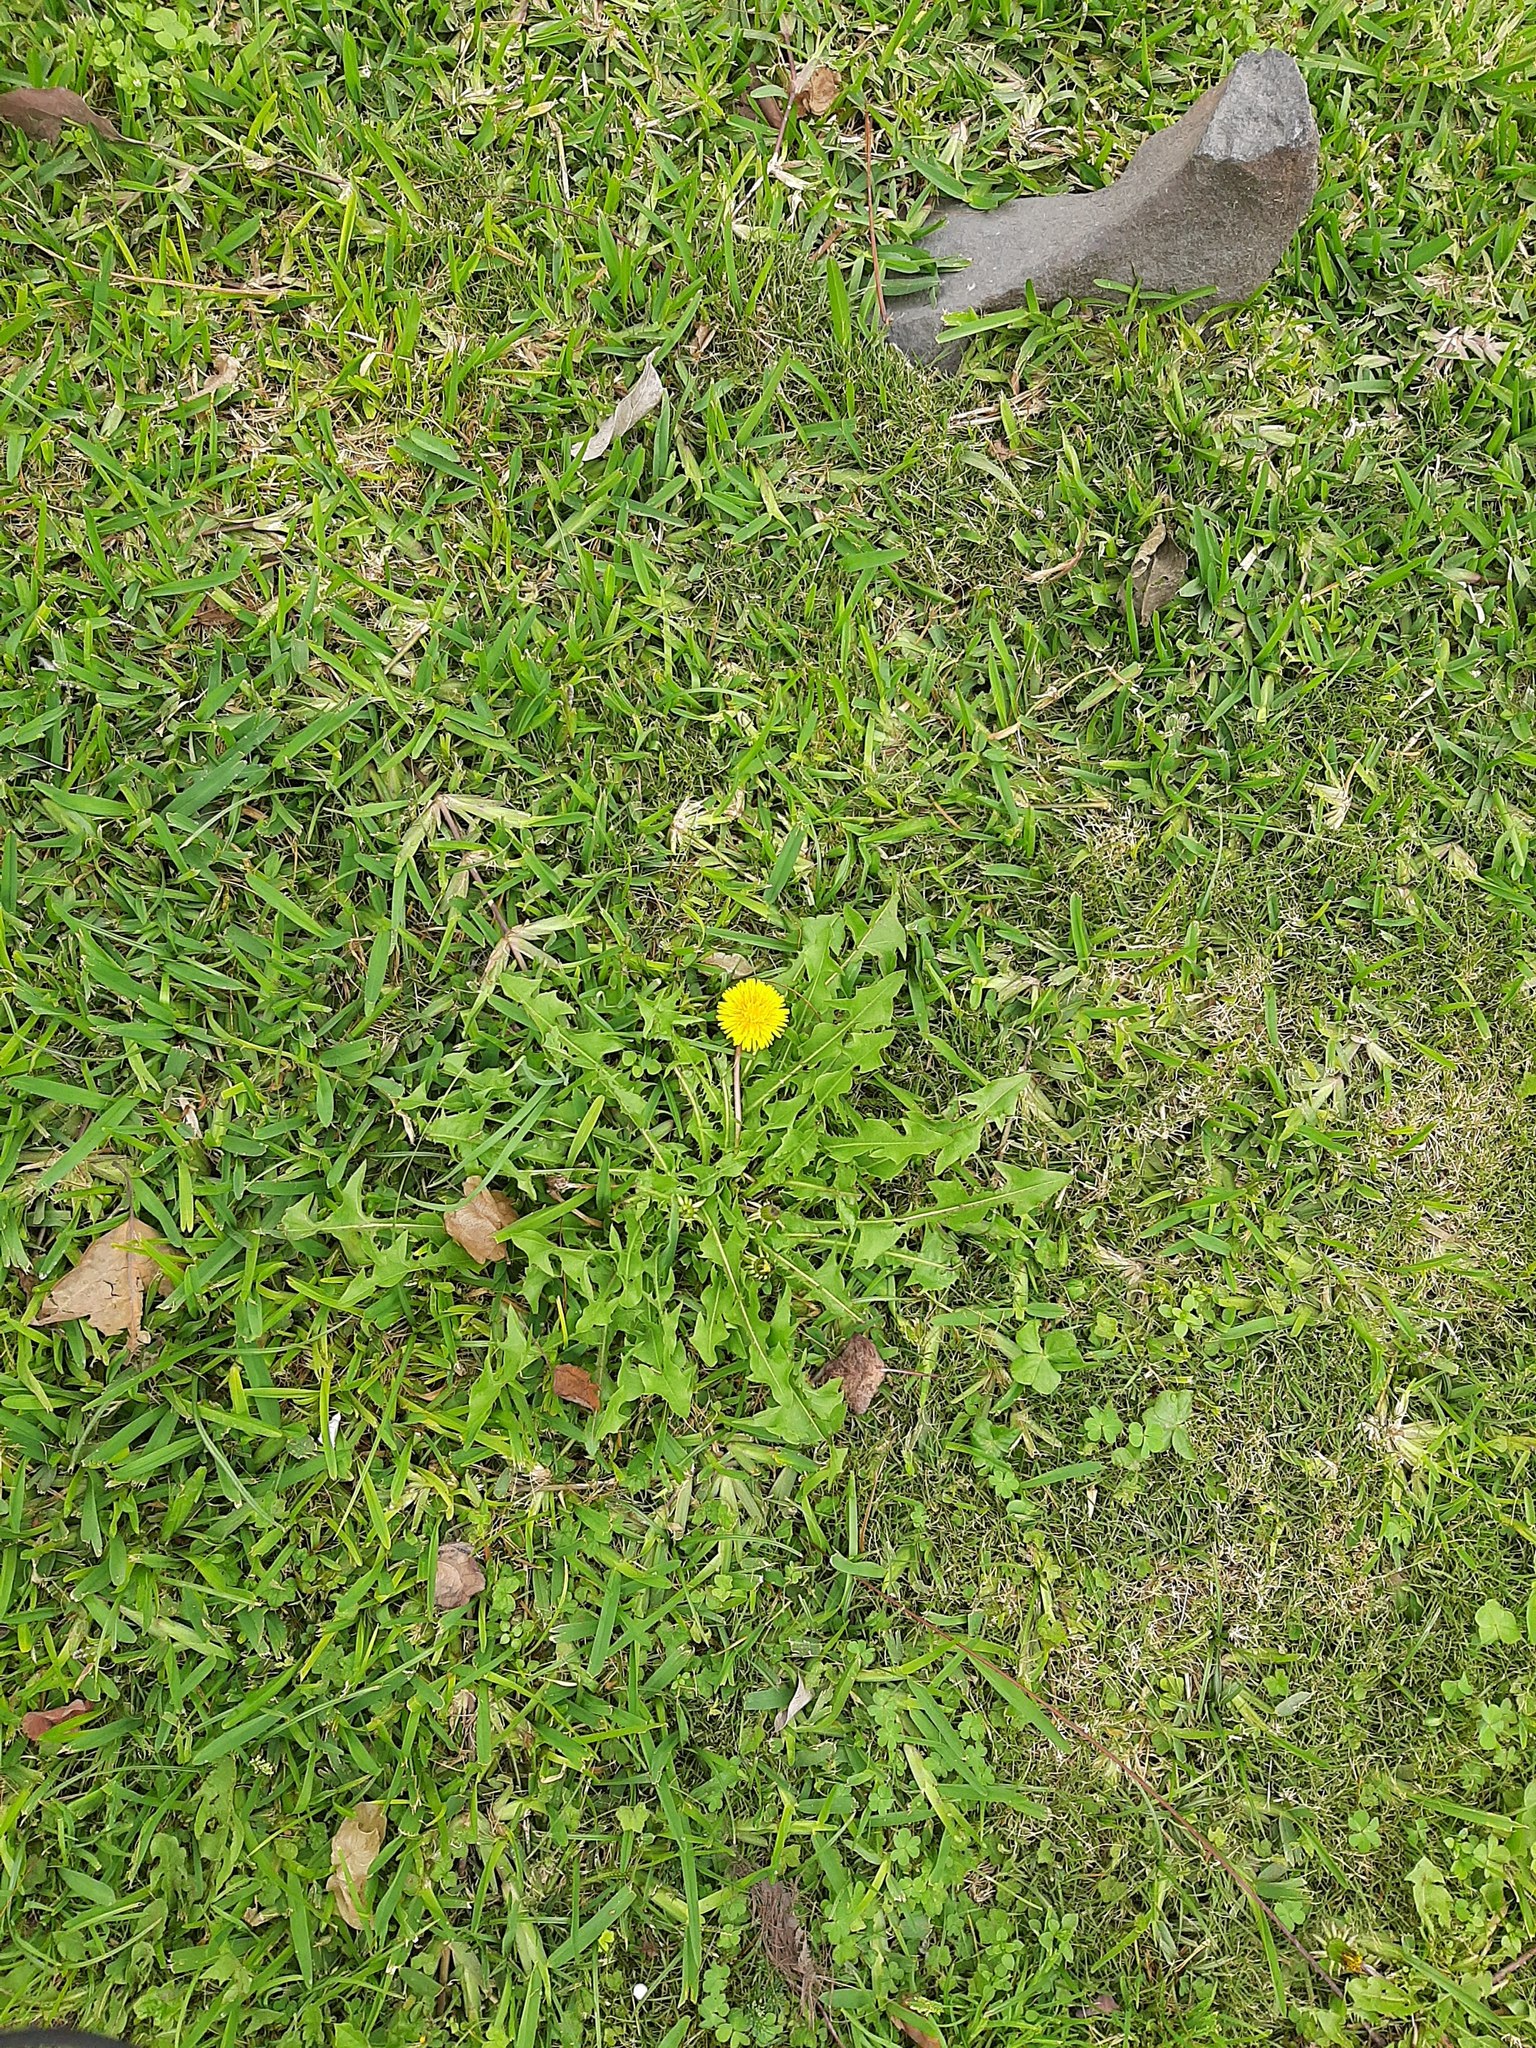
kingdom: Plantae
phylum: Tracheophyta
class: Magnoliopsida
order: Asterales
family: Asteraceae
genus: Taraxacum
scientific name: Taraxacum officinale
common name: Common dandelion
